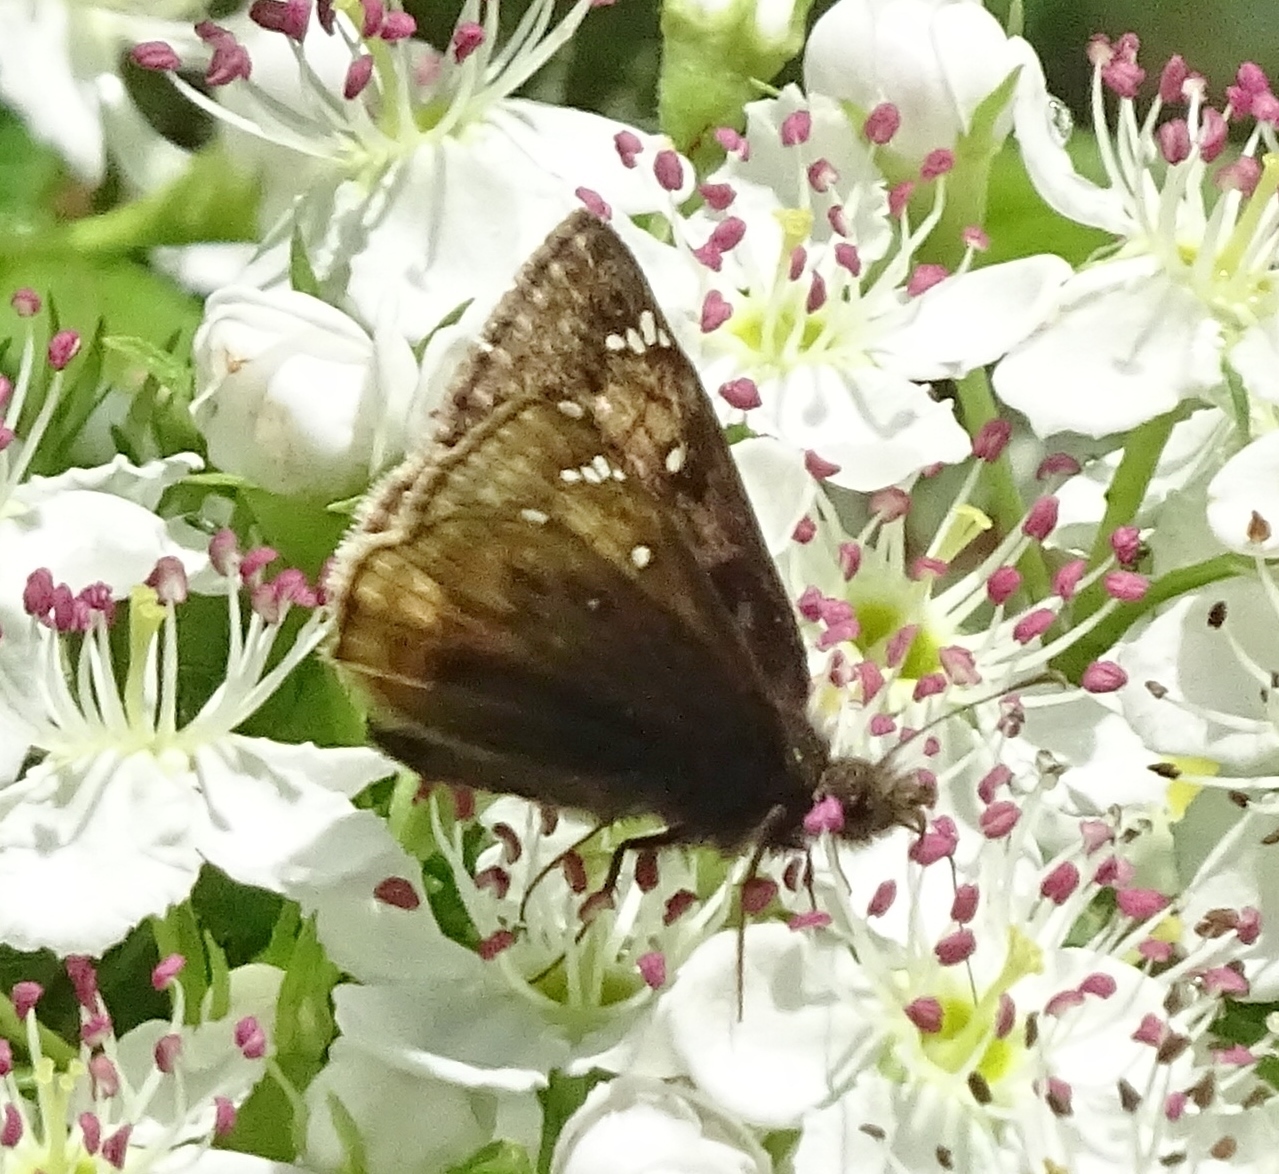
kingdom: Animalia
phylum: Arthropoda
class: Insecta
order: Lepidoptera
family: Hesperiidae
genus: Erynnis
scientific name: Erynnis juvenalis
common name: Juvenal's duskywing
